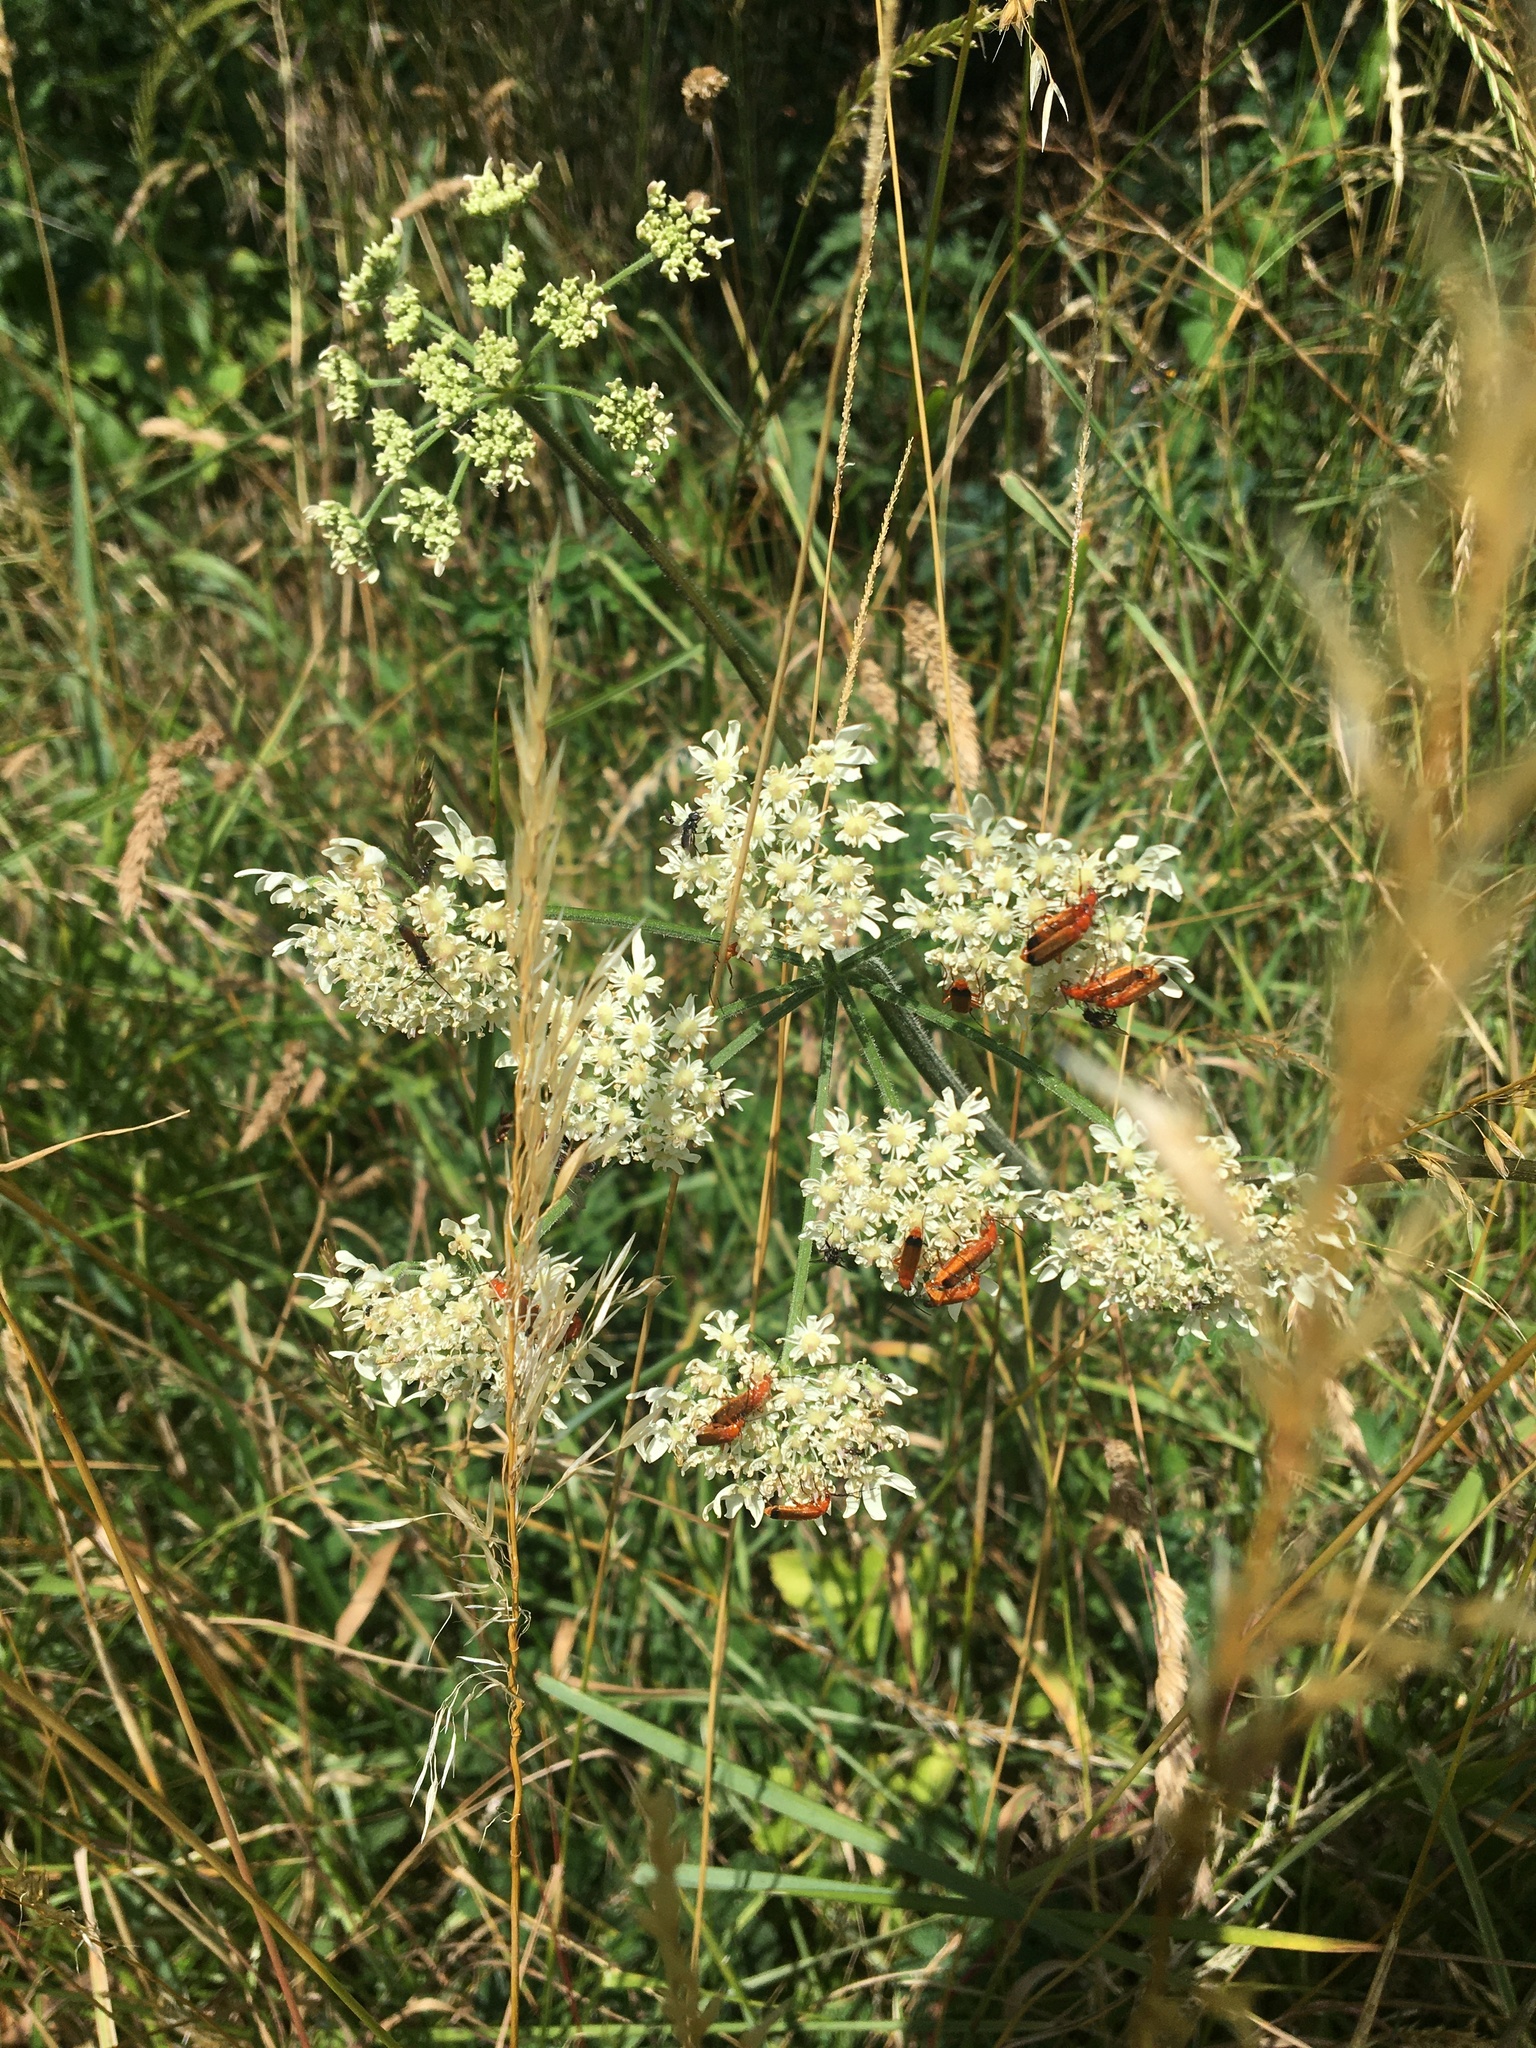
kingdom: Animalia
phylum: Arthropoda
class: Insecta
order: Coleoptera
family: Cantharidae
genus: Rhagonycha
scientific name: Rhagonycha fulva
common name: Common red soldier beetle
